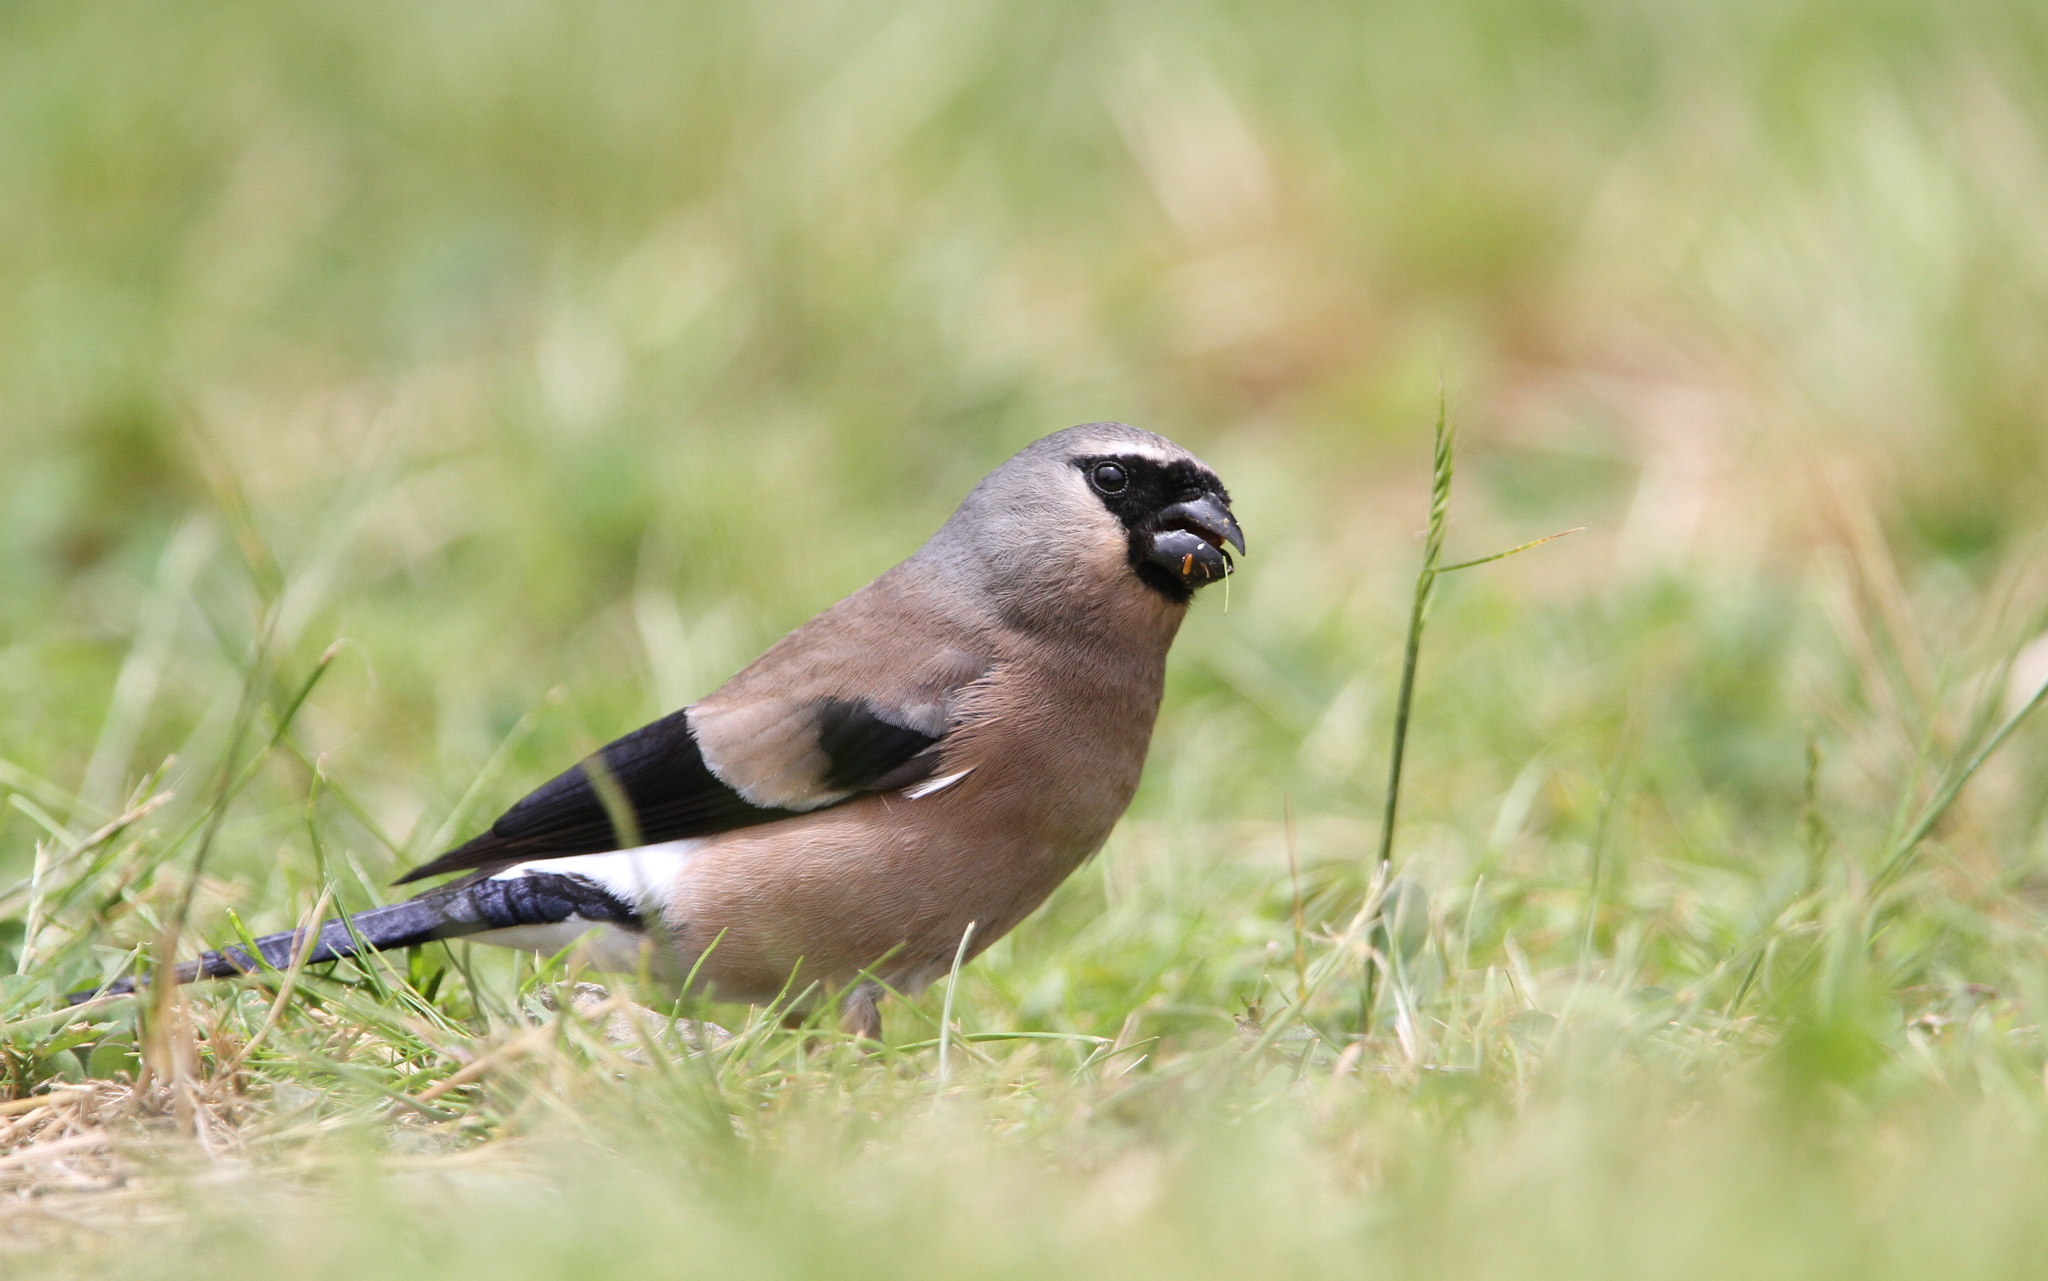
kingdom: Animalia
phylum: Chordata
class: Aves
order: Passeriformes
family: Fringillidae
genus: Pyrrhula
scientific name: Pyrrhula owstoni
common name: Taiwan bullfinch
